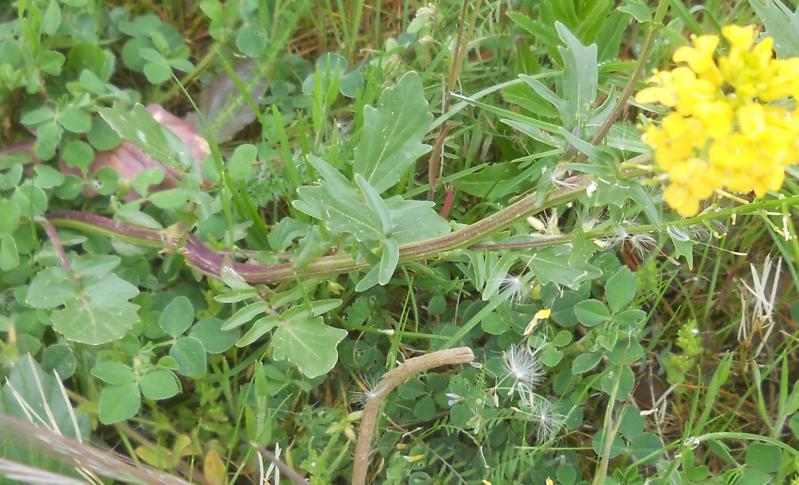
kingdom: Plantae
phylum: Tracheophyta
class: Magnoliopsida
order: Brassicales
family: Brassicaceae
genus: Barbarea
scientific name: Barbarea intermedia
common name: Medium-flowered winter-cress
